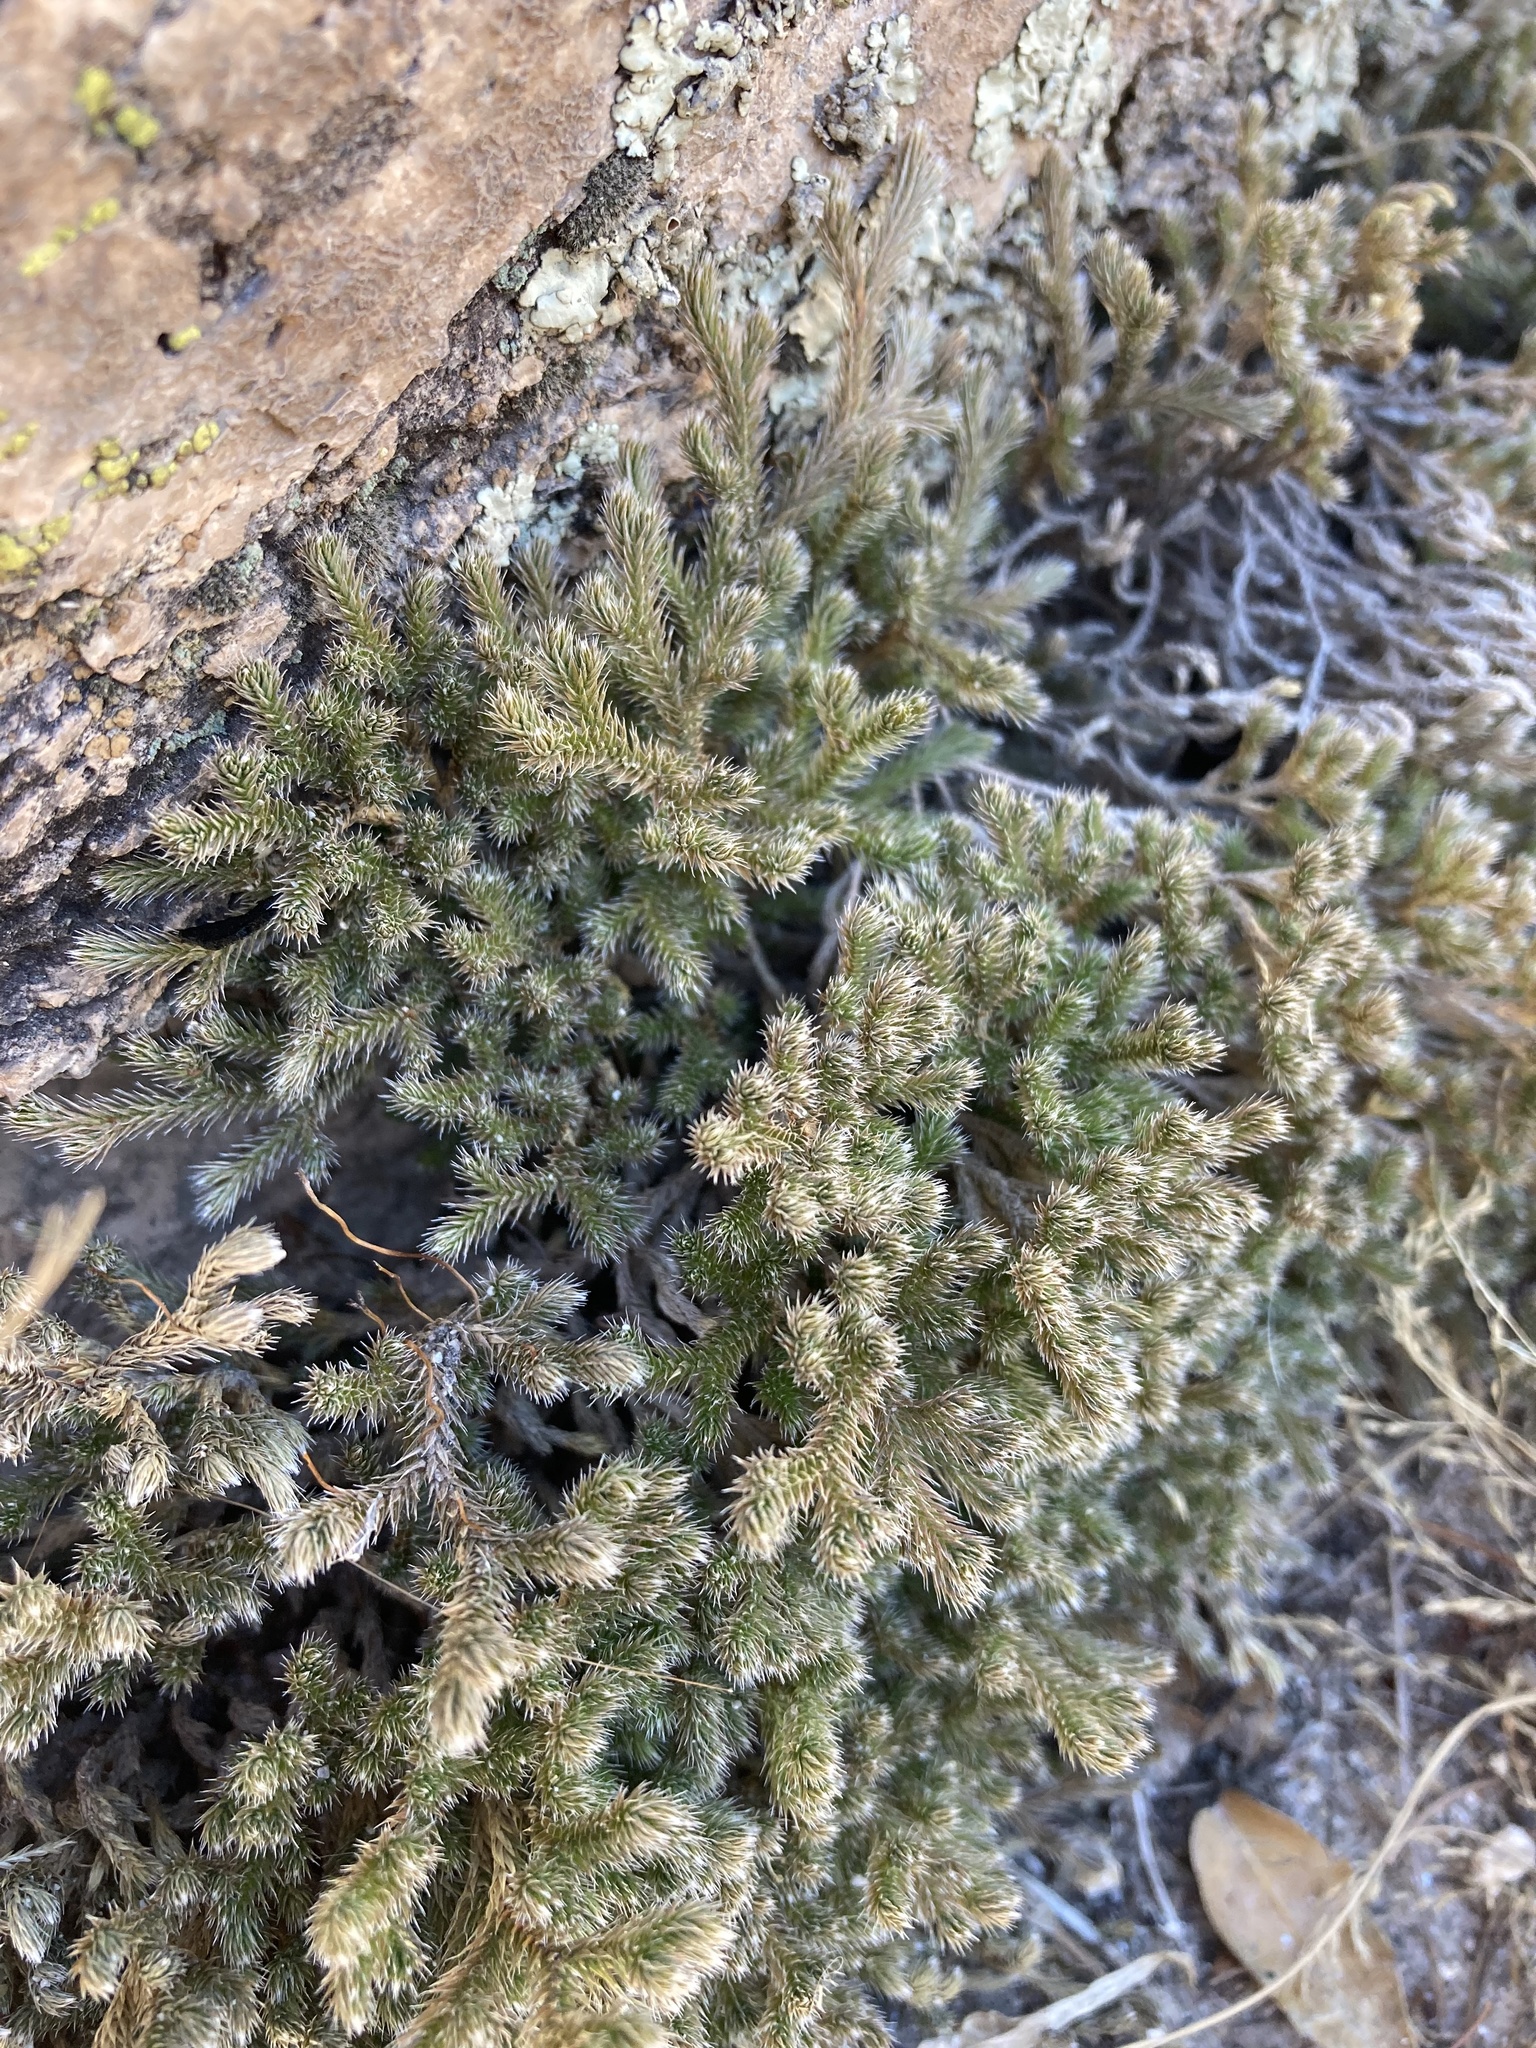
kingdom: Plantae
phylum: Tracheophyta
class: Lycopodiopsida
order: Selaginellales
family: Selaginellaceae
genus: Selaginella
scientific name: Selaginella rupincola
